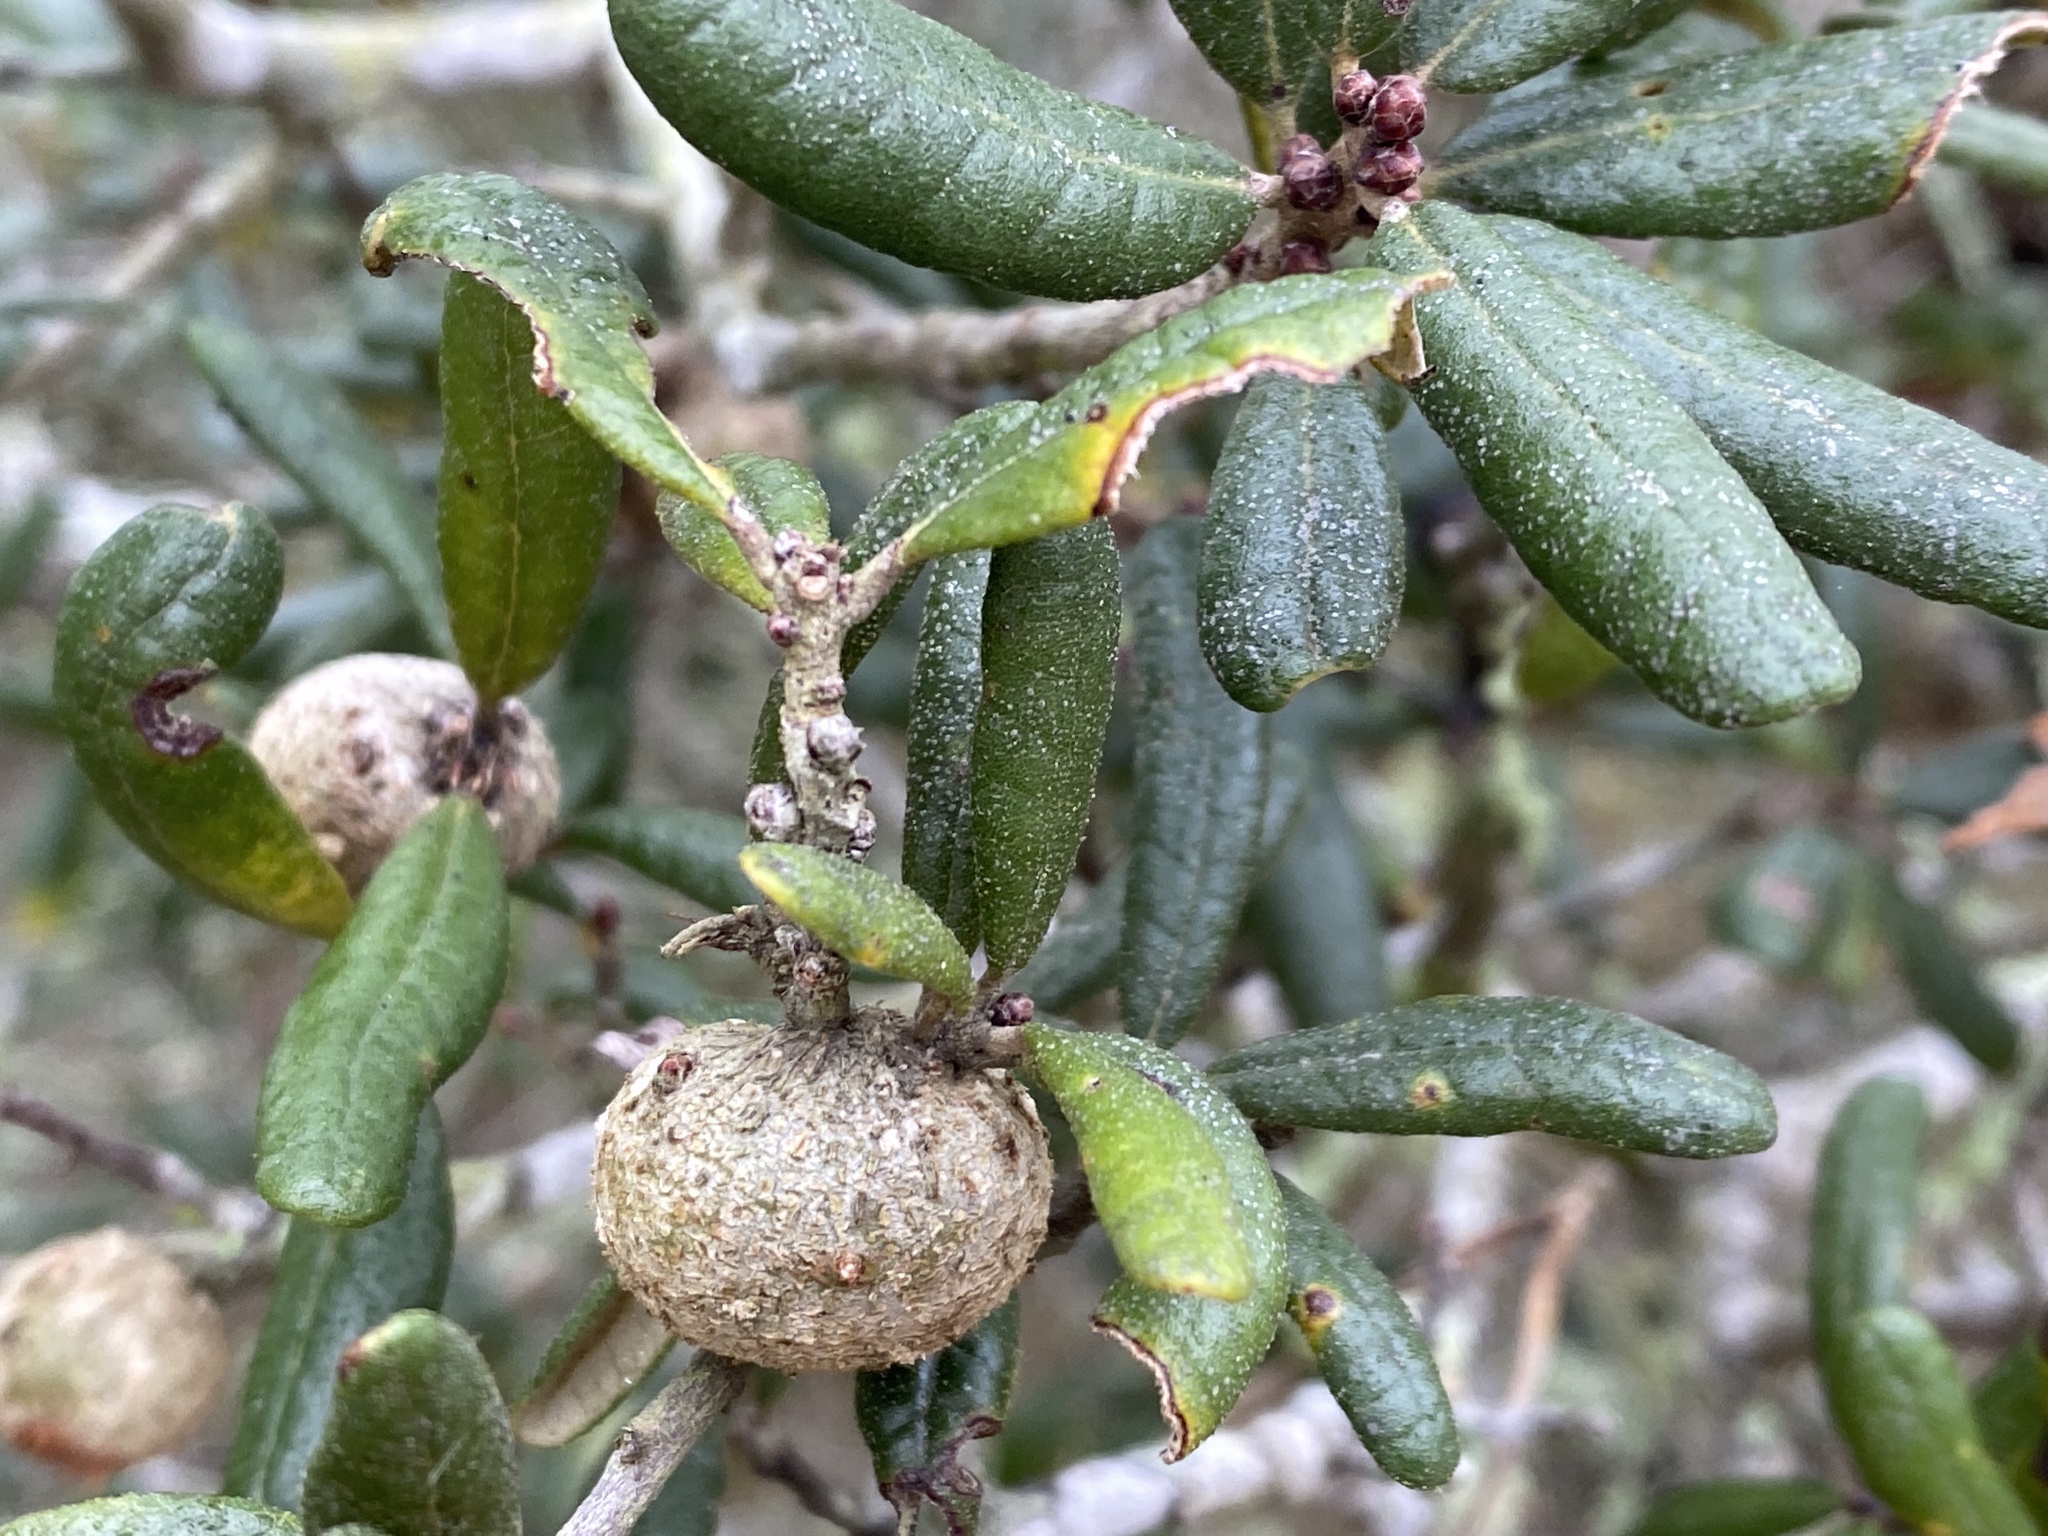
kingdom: Animalia
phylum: Arthropoda
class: Insecta
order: Hymenoptera
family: Cynipidae
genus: Callirhytis
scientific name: Callirhytis
